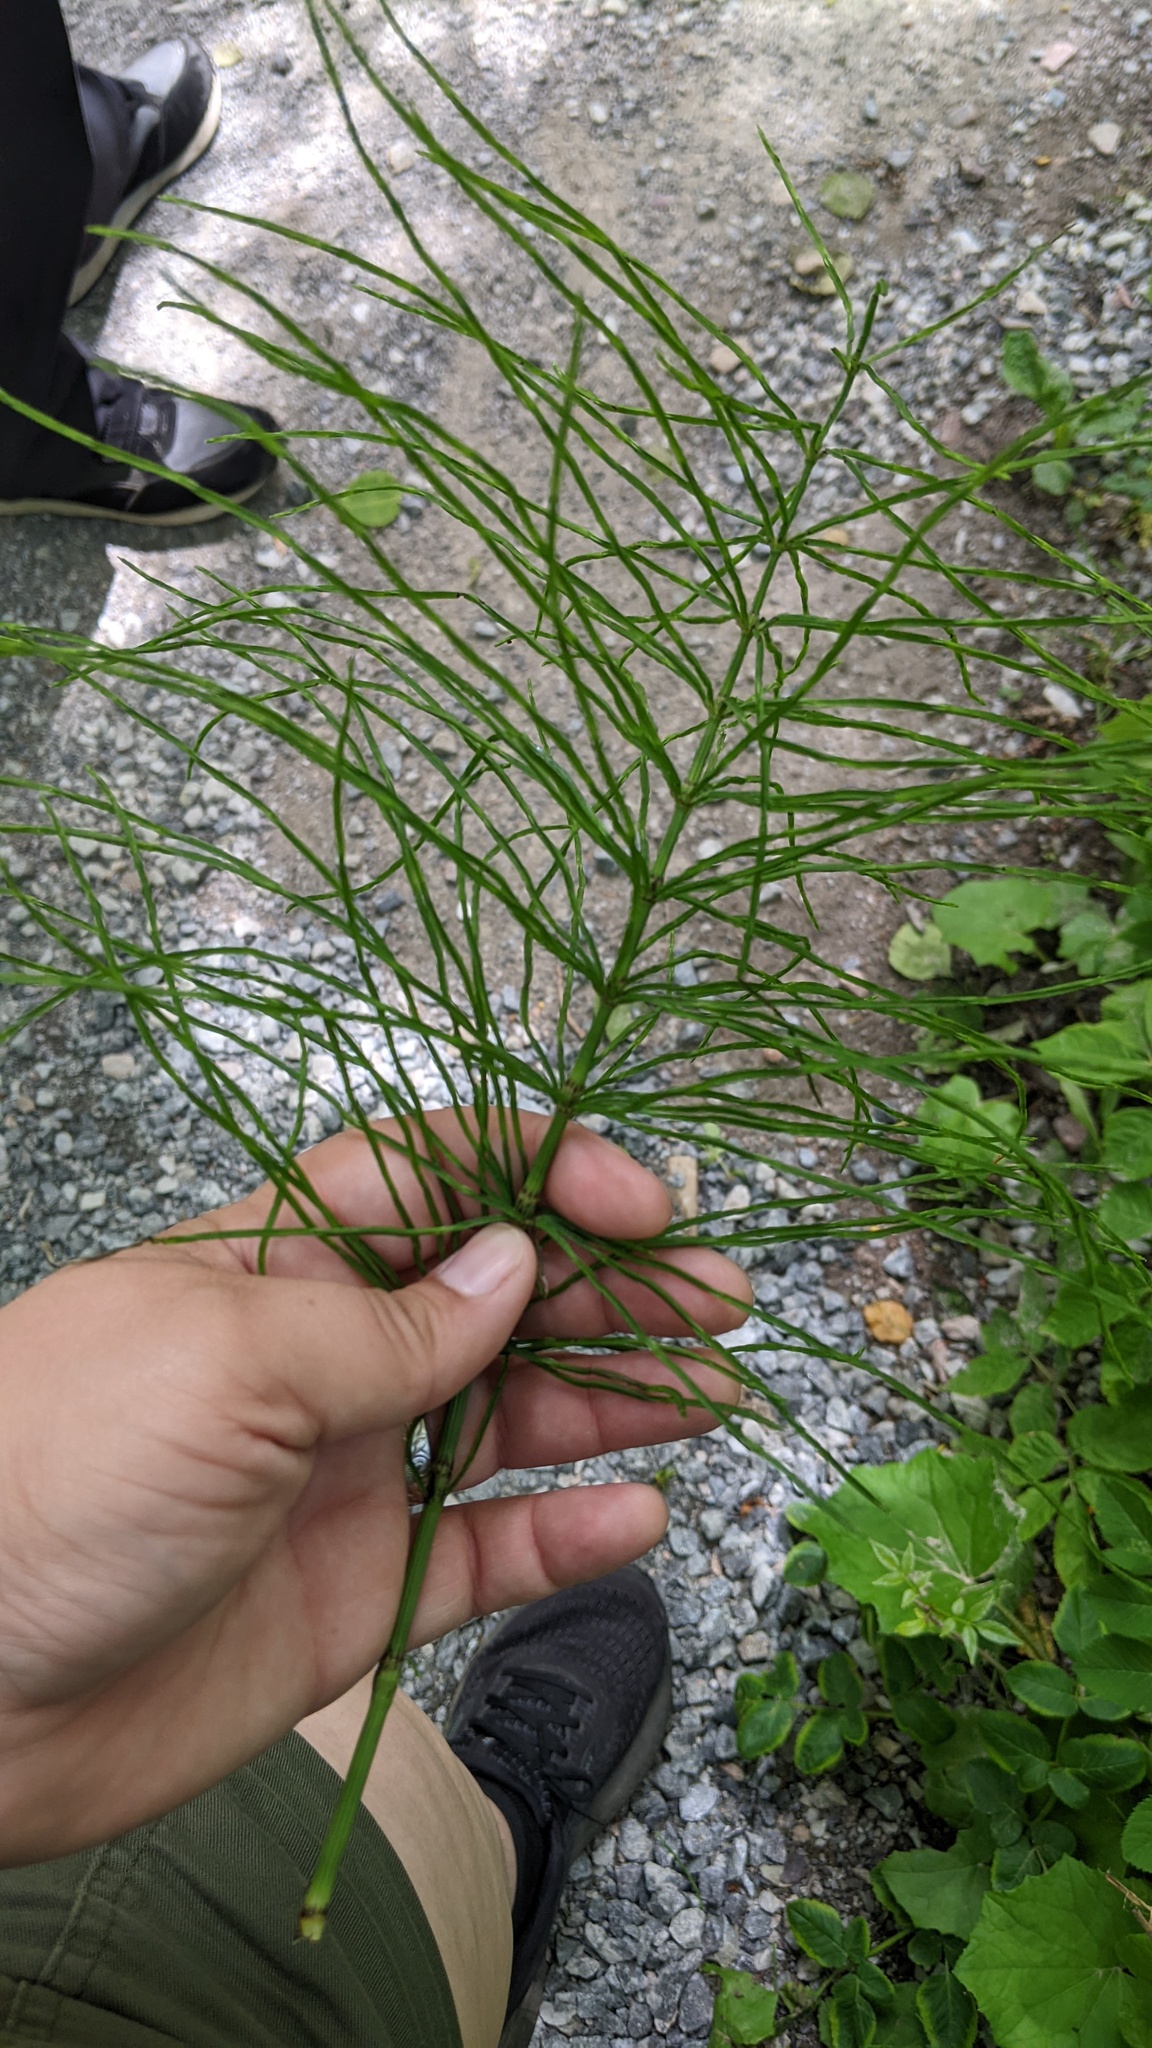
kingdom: Plantae
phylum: Tracheophyta
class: Polypodiopsida
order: Equisetales
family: Equisetaceae
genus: Equisetum
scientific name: Equisetum arvense
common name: Field horsetail
